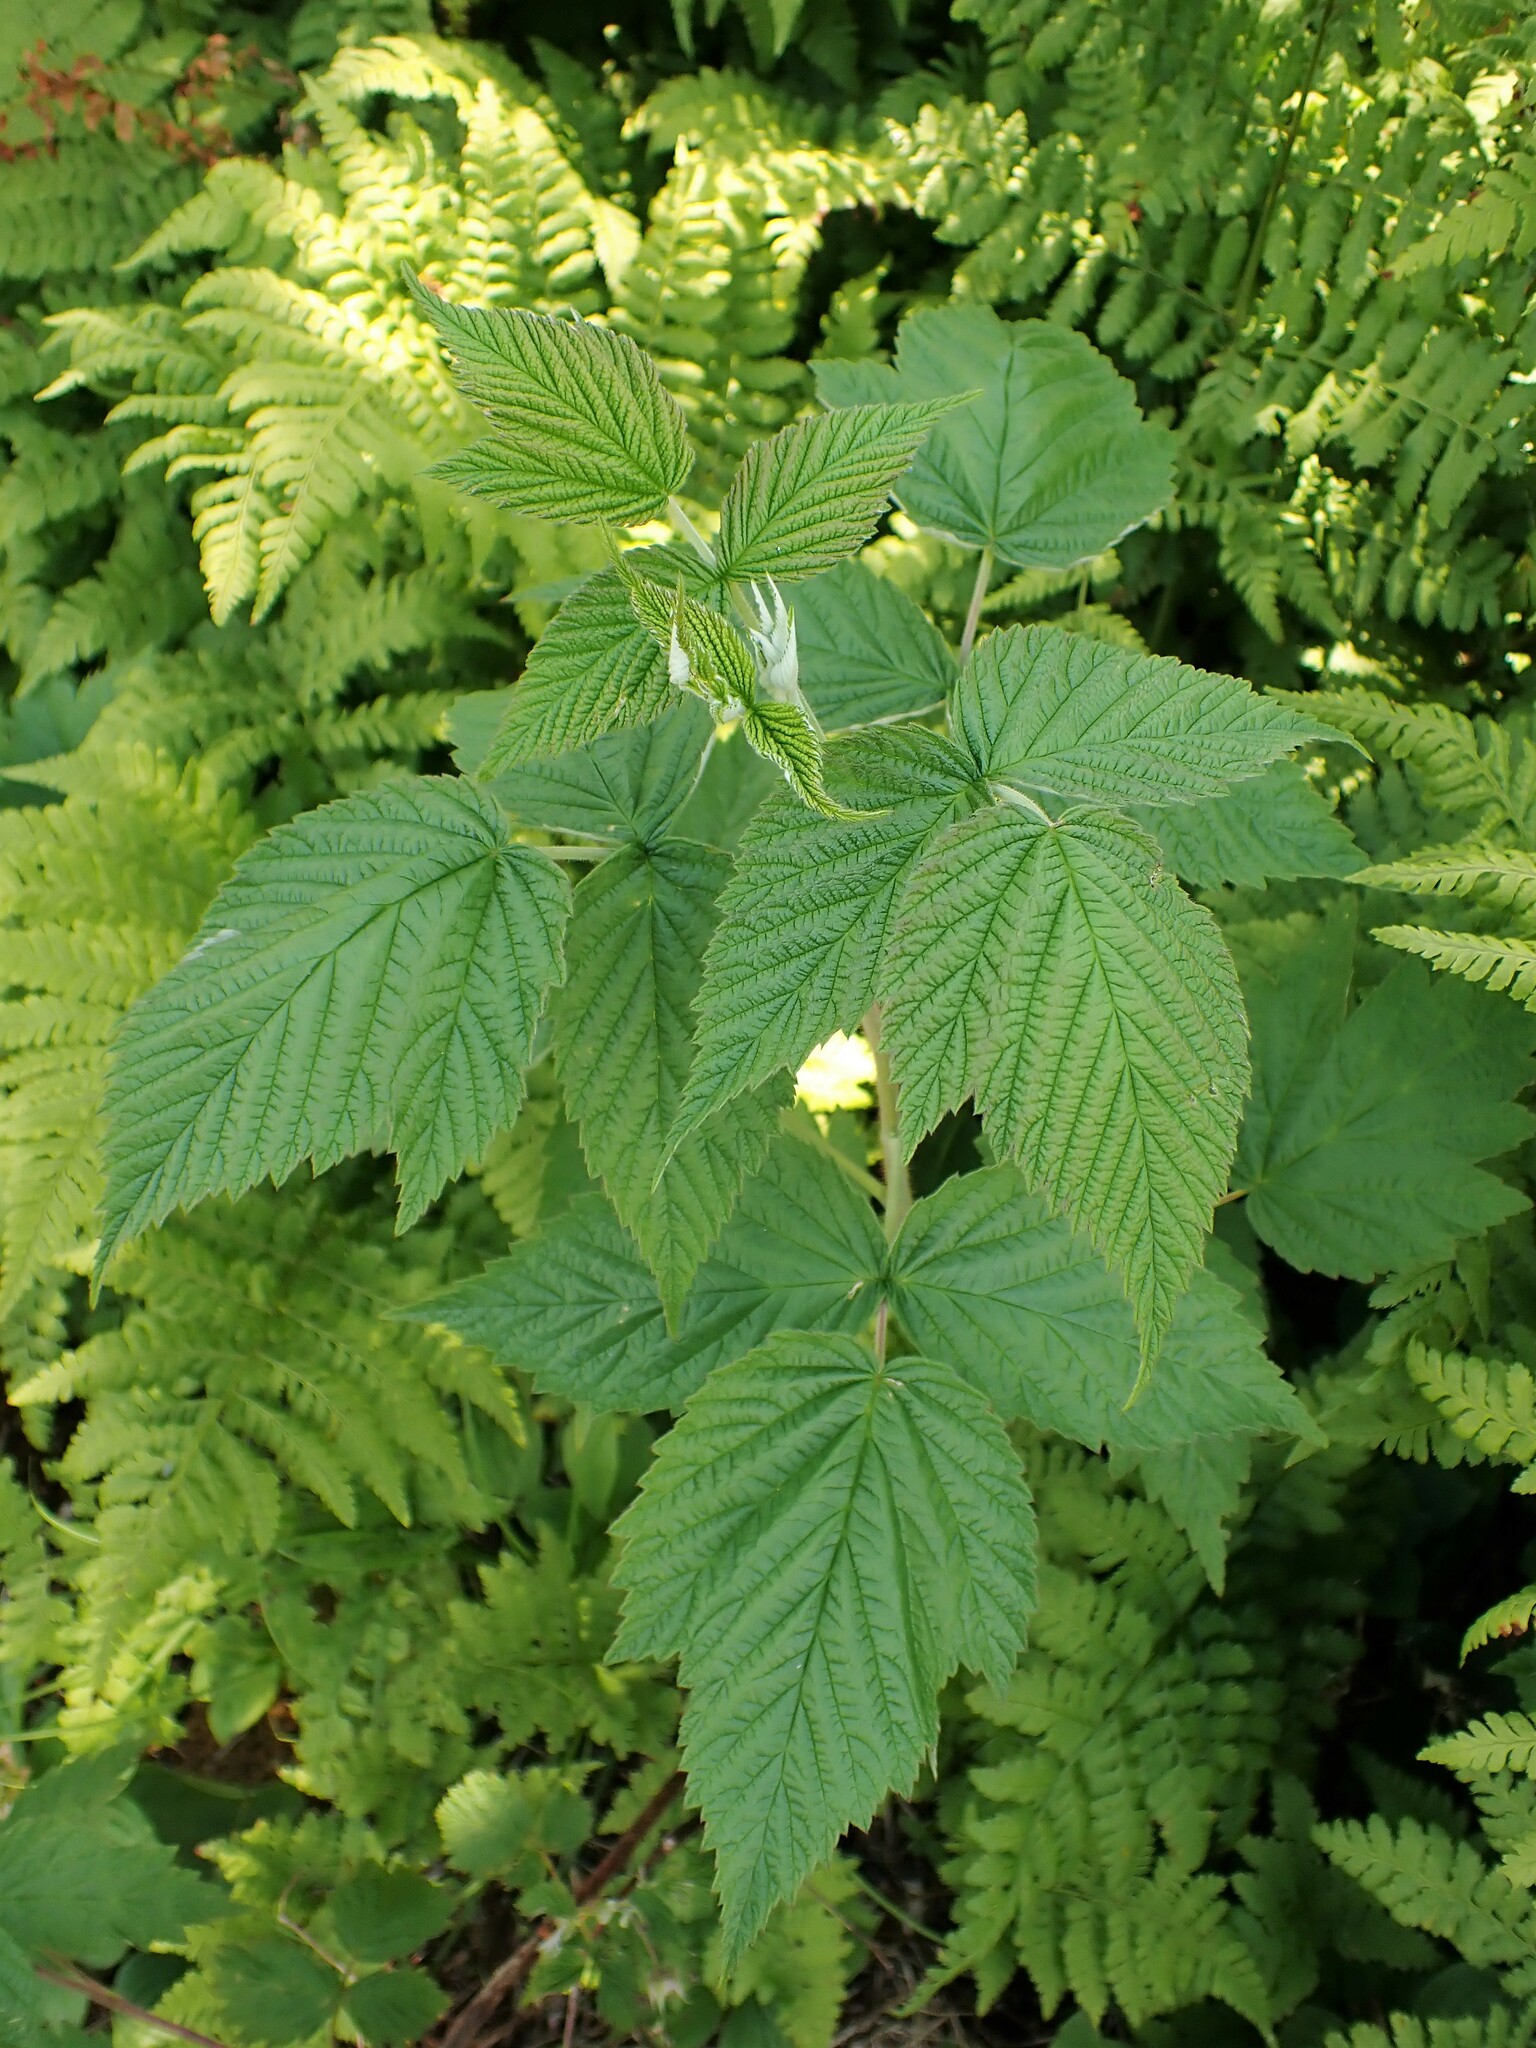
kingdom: Plantae
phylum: Tracheophyta
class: Magnoliopsida
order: Rosales
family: Rosaceae
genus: Rubus
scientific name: Rubus idaeus
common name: Raspberry
